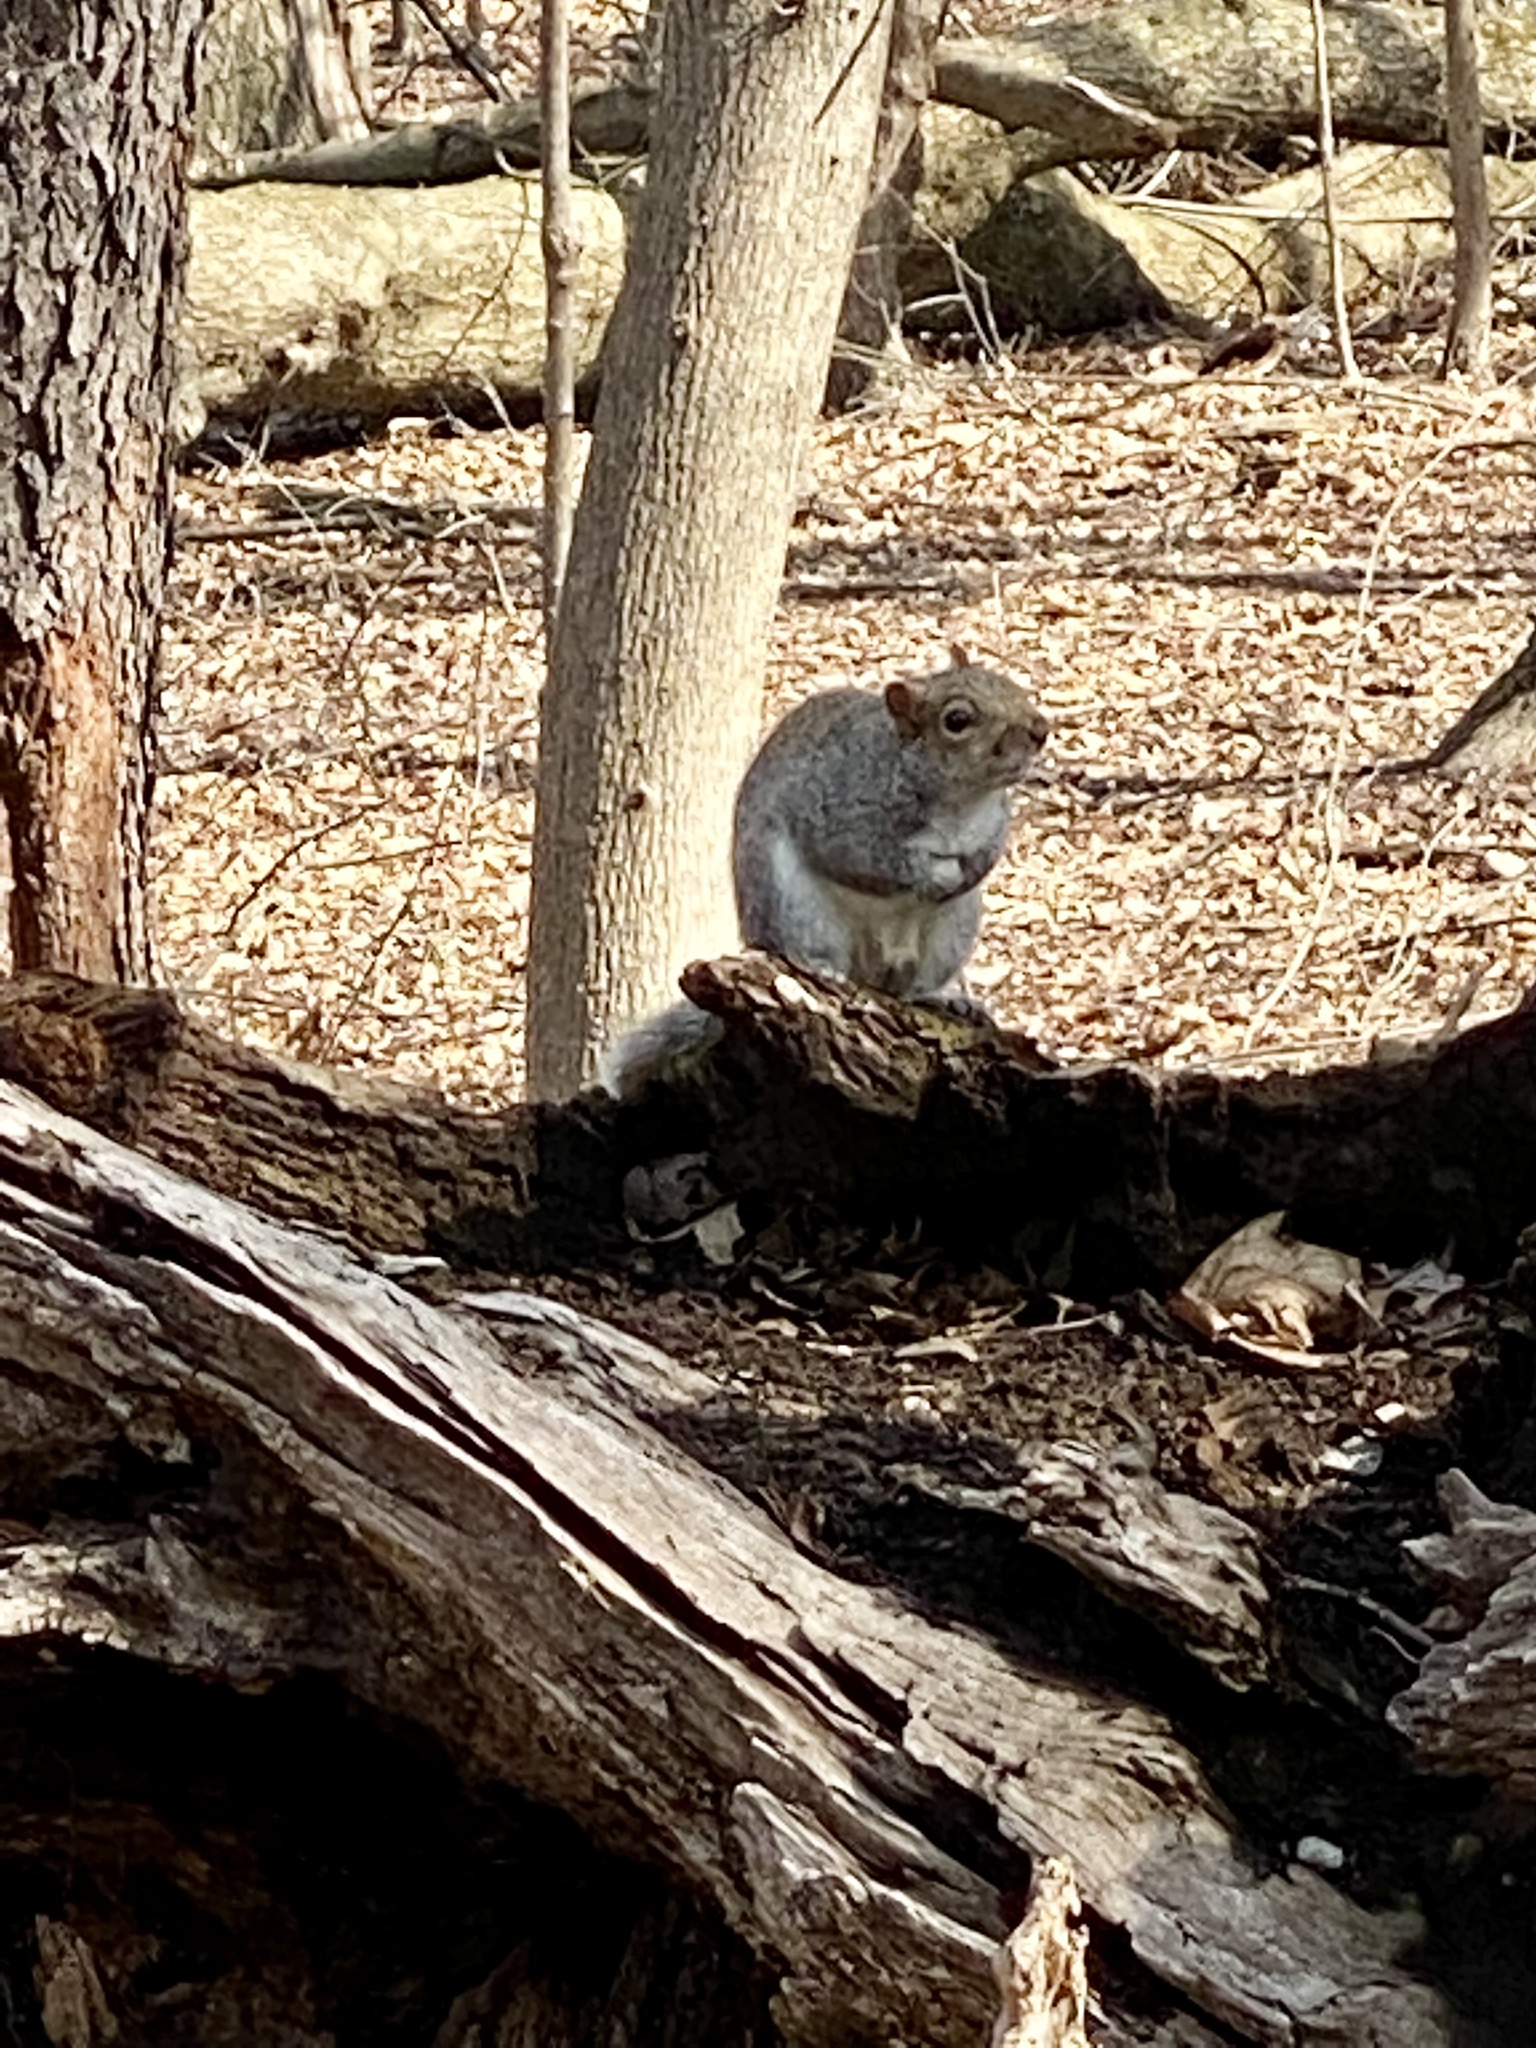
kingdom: Animalia
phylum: Chordata
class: Mammalia
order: Rodentia
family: Sciuridae
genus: Sciurus
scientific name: Sciurus carolinensis
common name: Eastern gray squirrel
